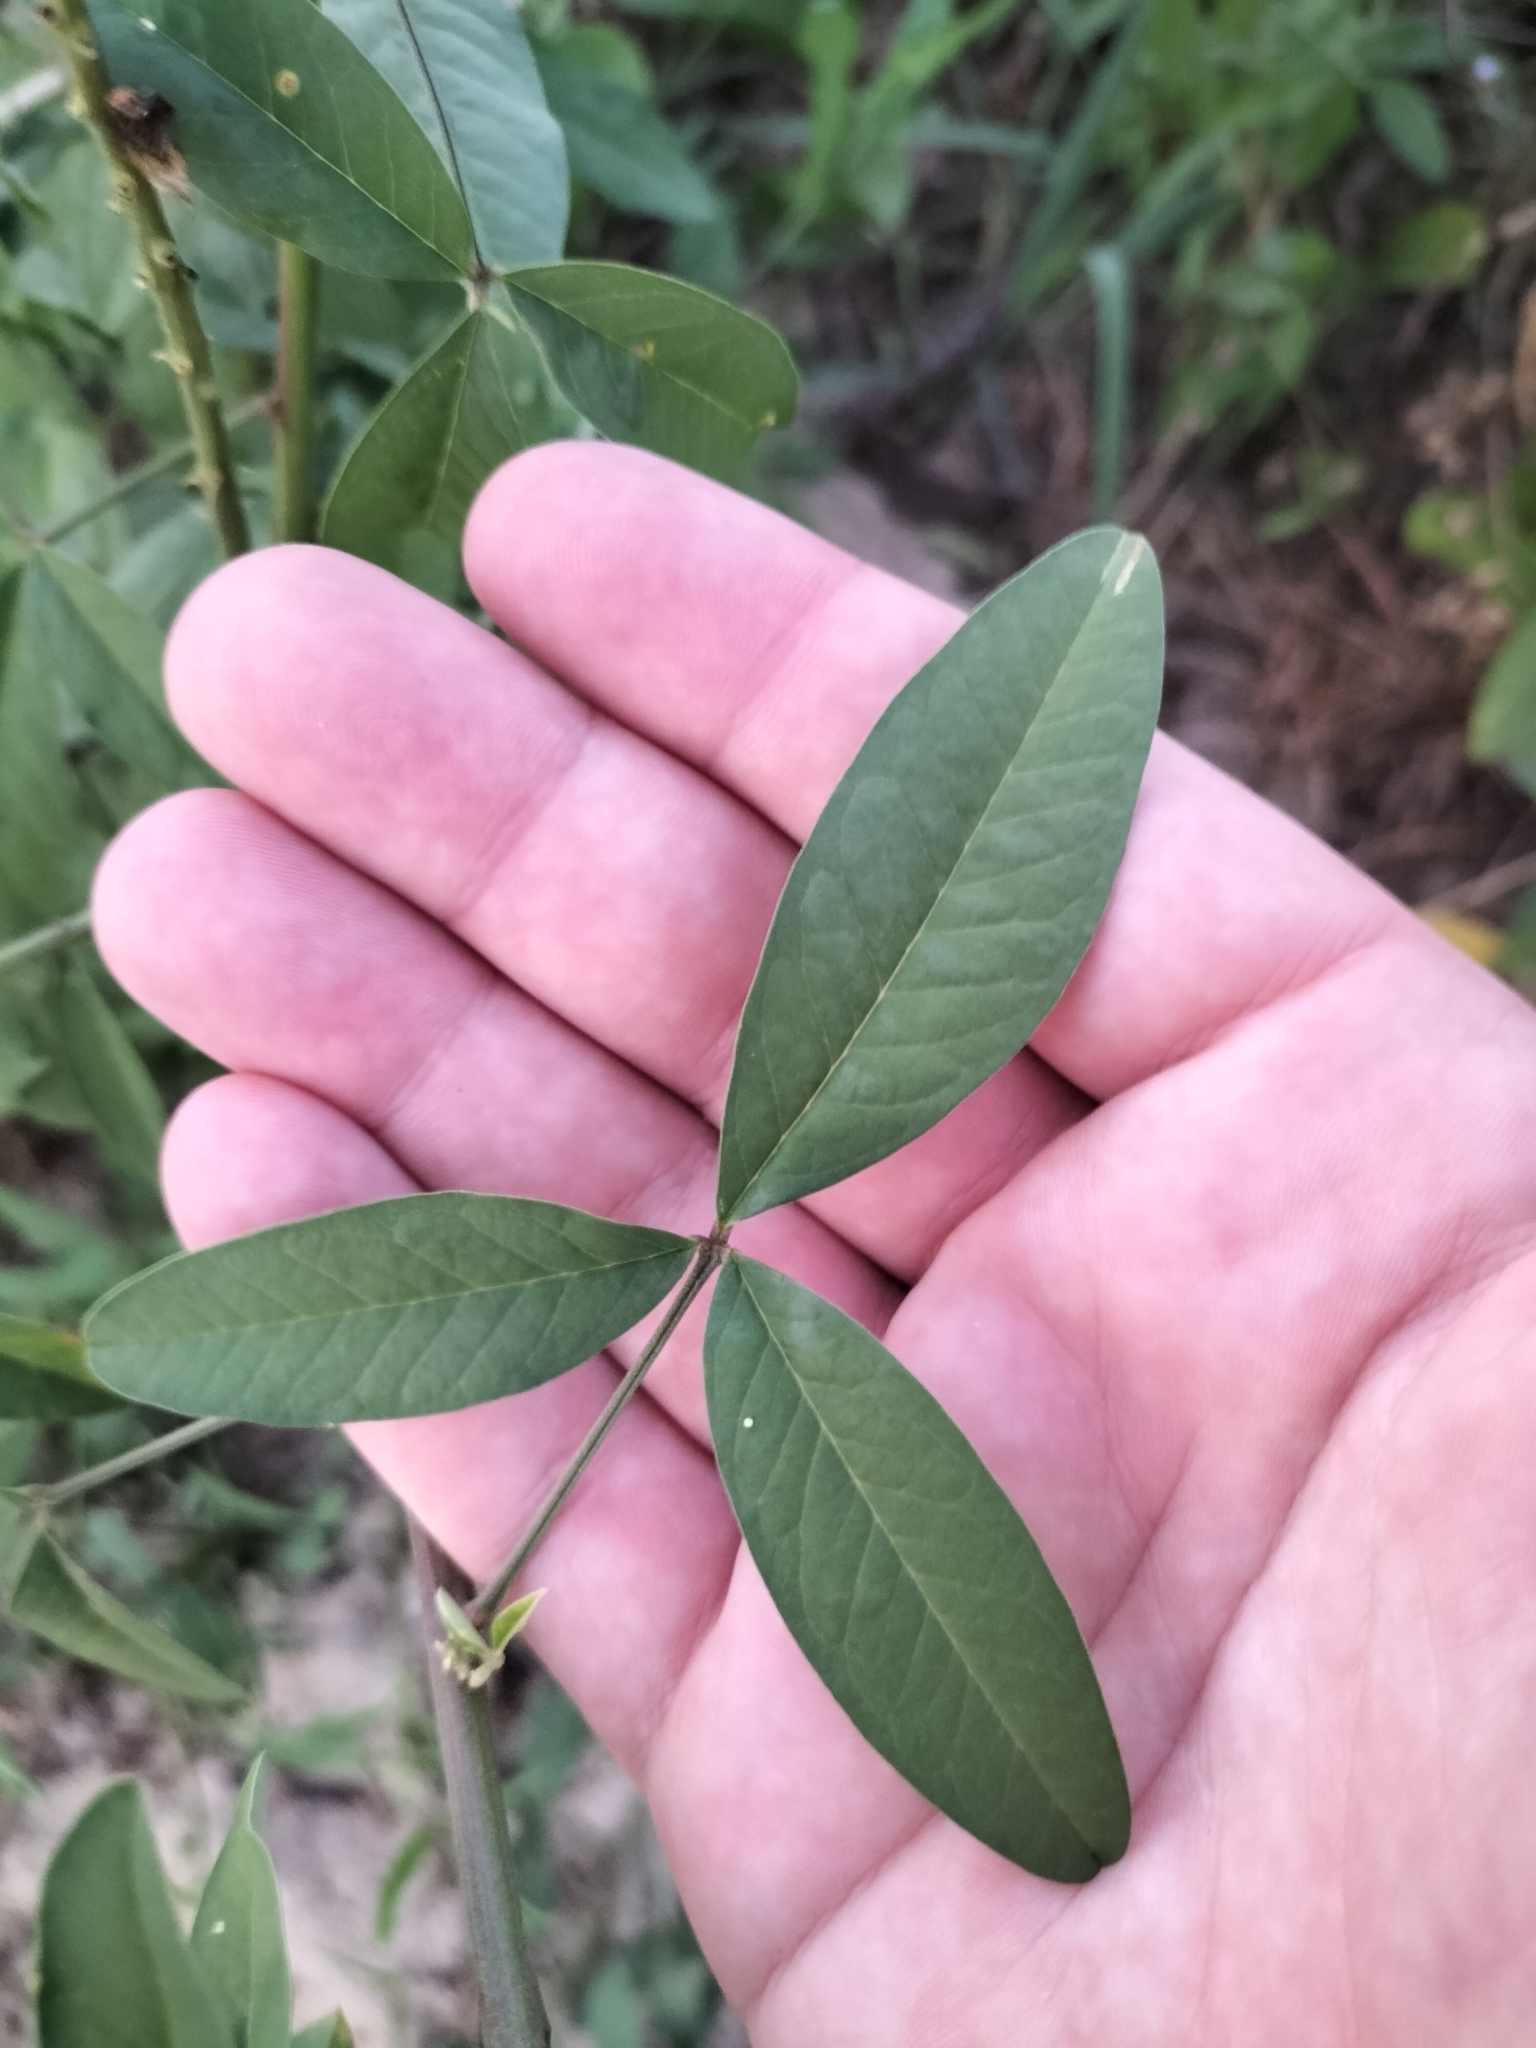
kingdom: Plantae
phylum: Tracheophyta
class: Magnoliopsida
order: Fabales
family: Fabaceae
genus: Crotalaria
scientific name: Crotalaria trichotoma
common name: West indian rattlebox
